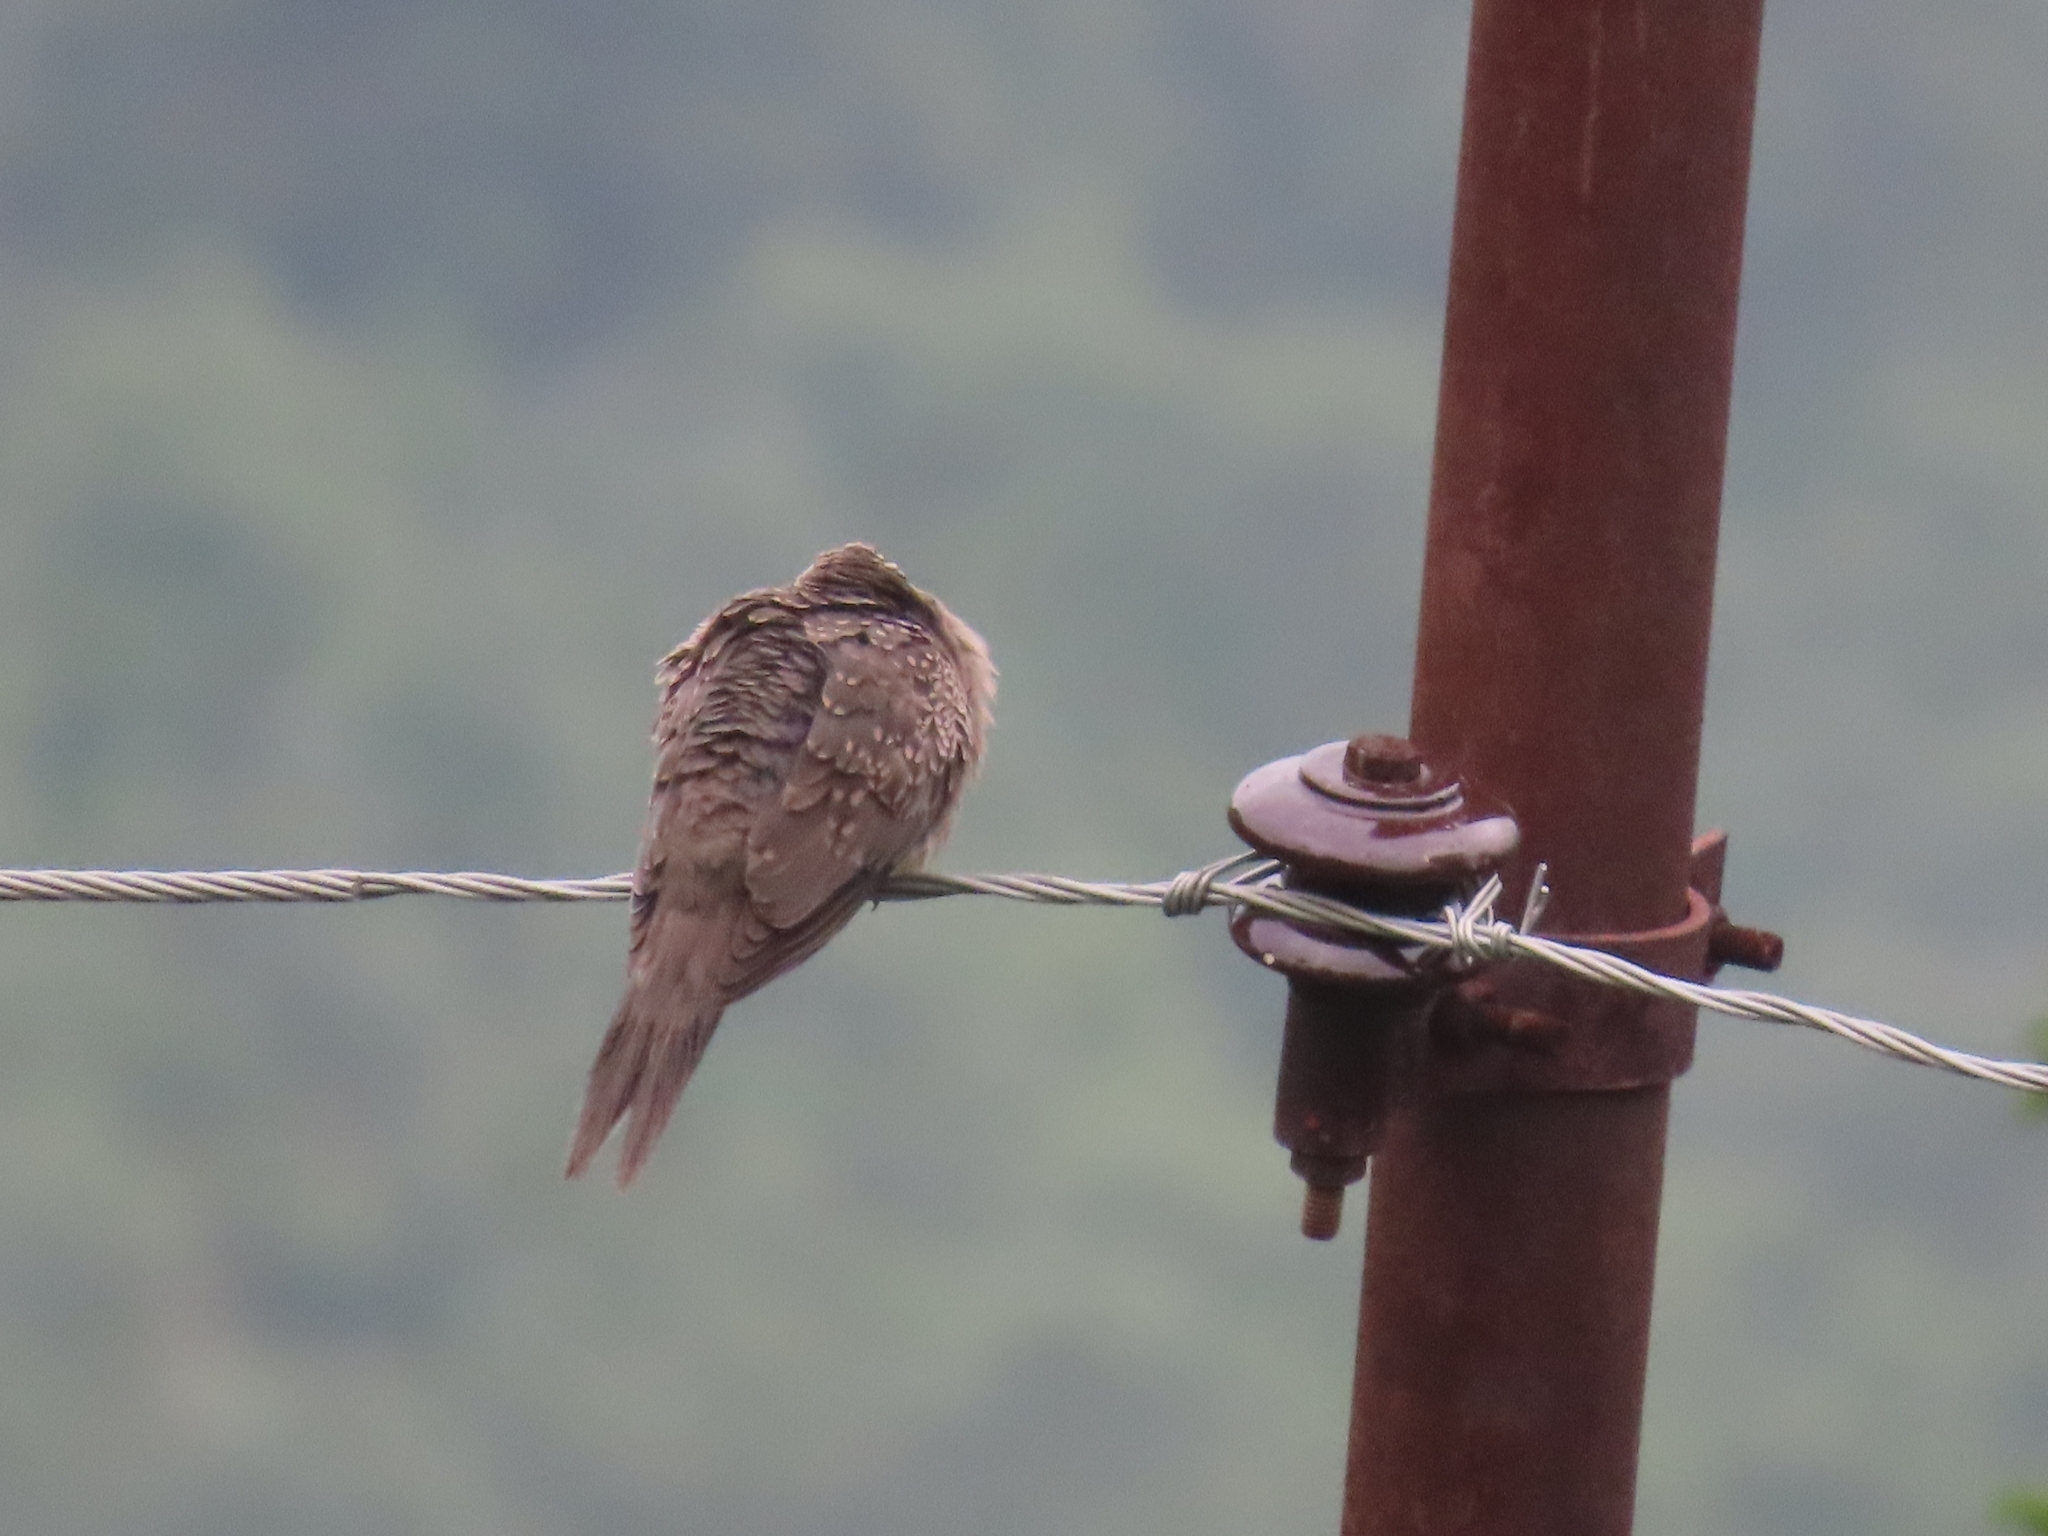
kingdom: Animalia
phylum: Chordata
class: Aves
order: Columbiformes
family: Columbidae
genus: Spilopelia
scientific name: Spilopelia chinensis
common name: Spotted dove
